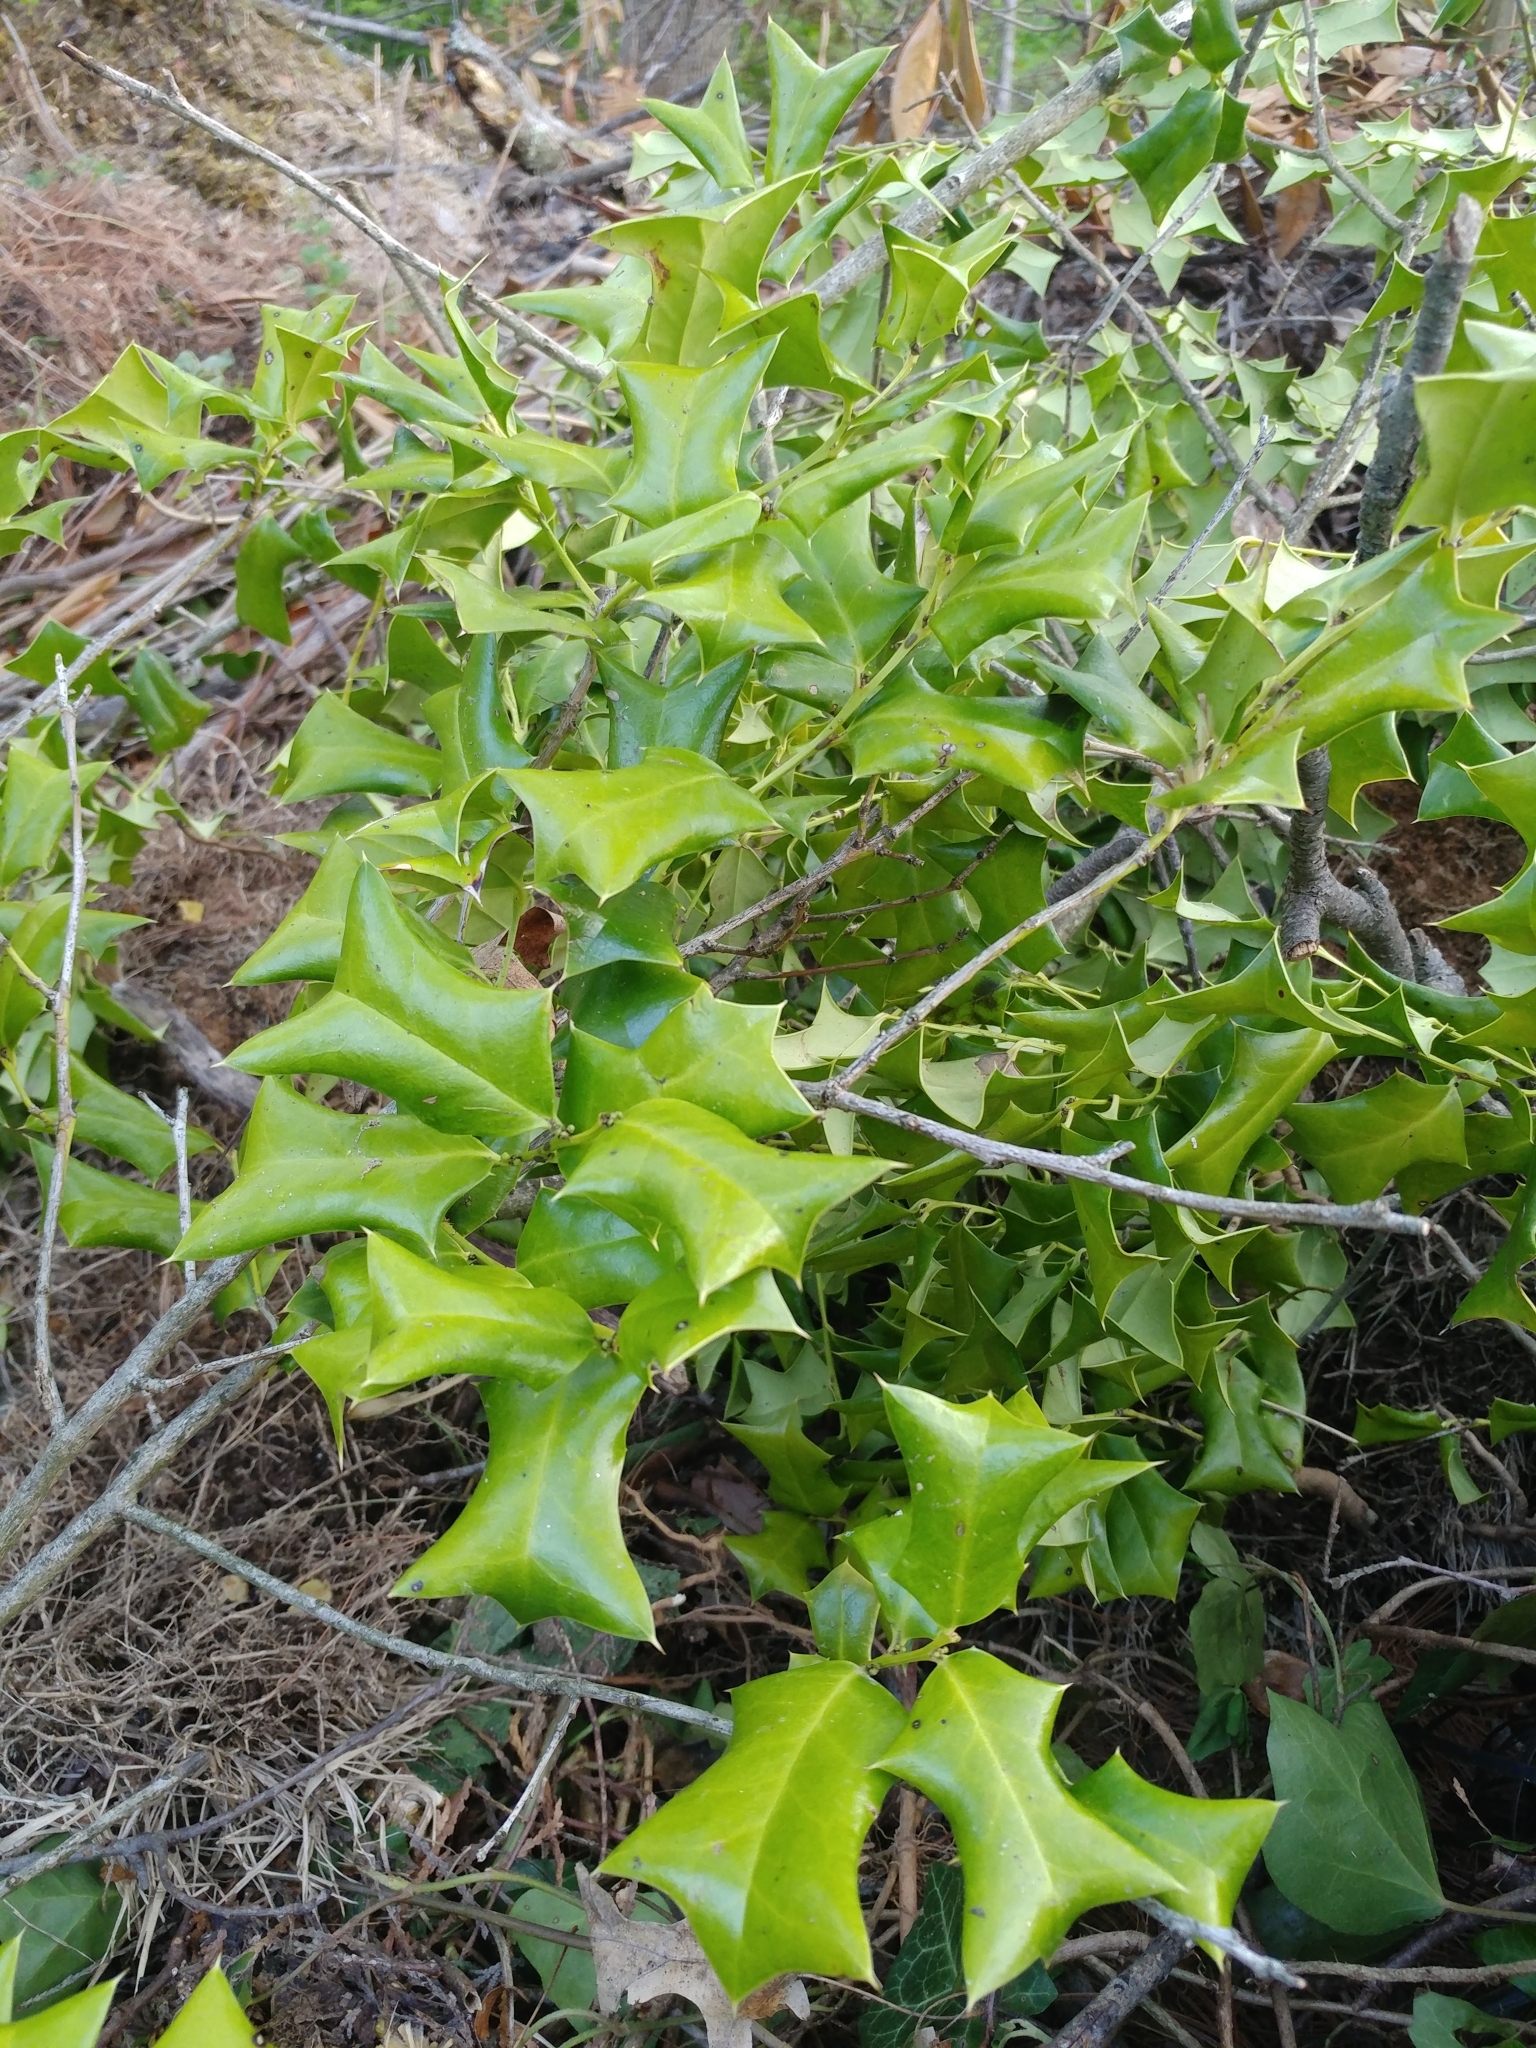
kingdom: Plantae
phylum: Tracheophyta
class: Magnoliopsida
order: Aquifoliales
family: Aquifoliaceae
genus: Ilex
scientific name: Ilex cornuta
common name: Chinese holly
